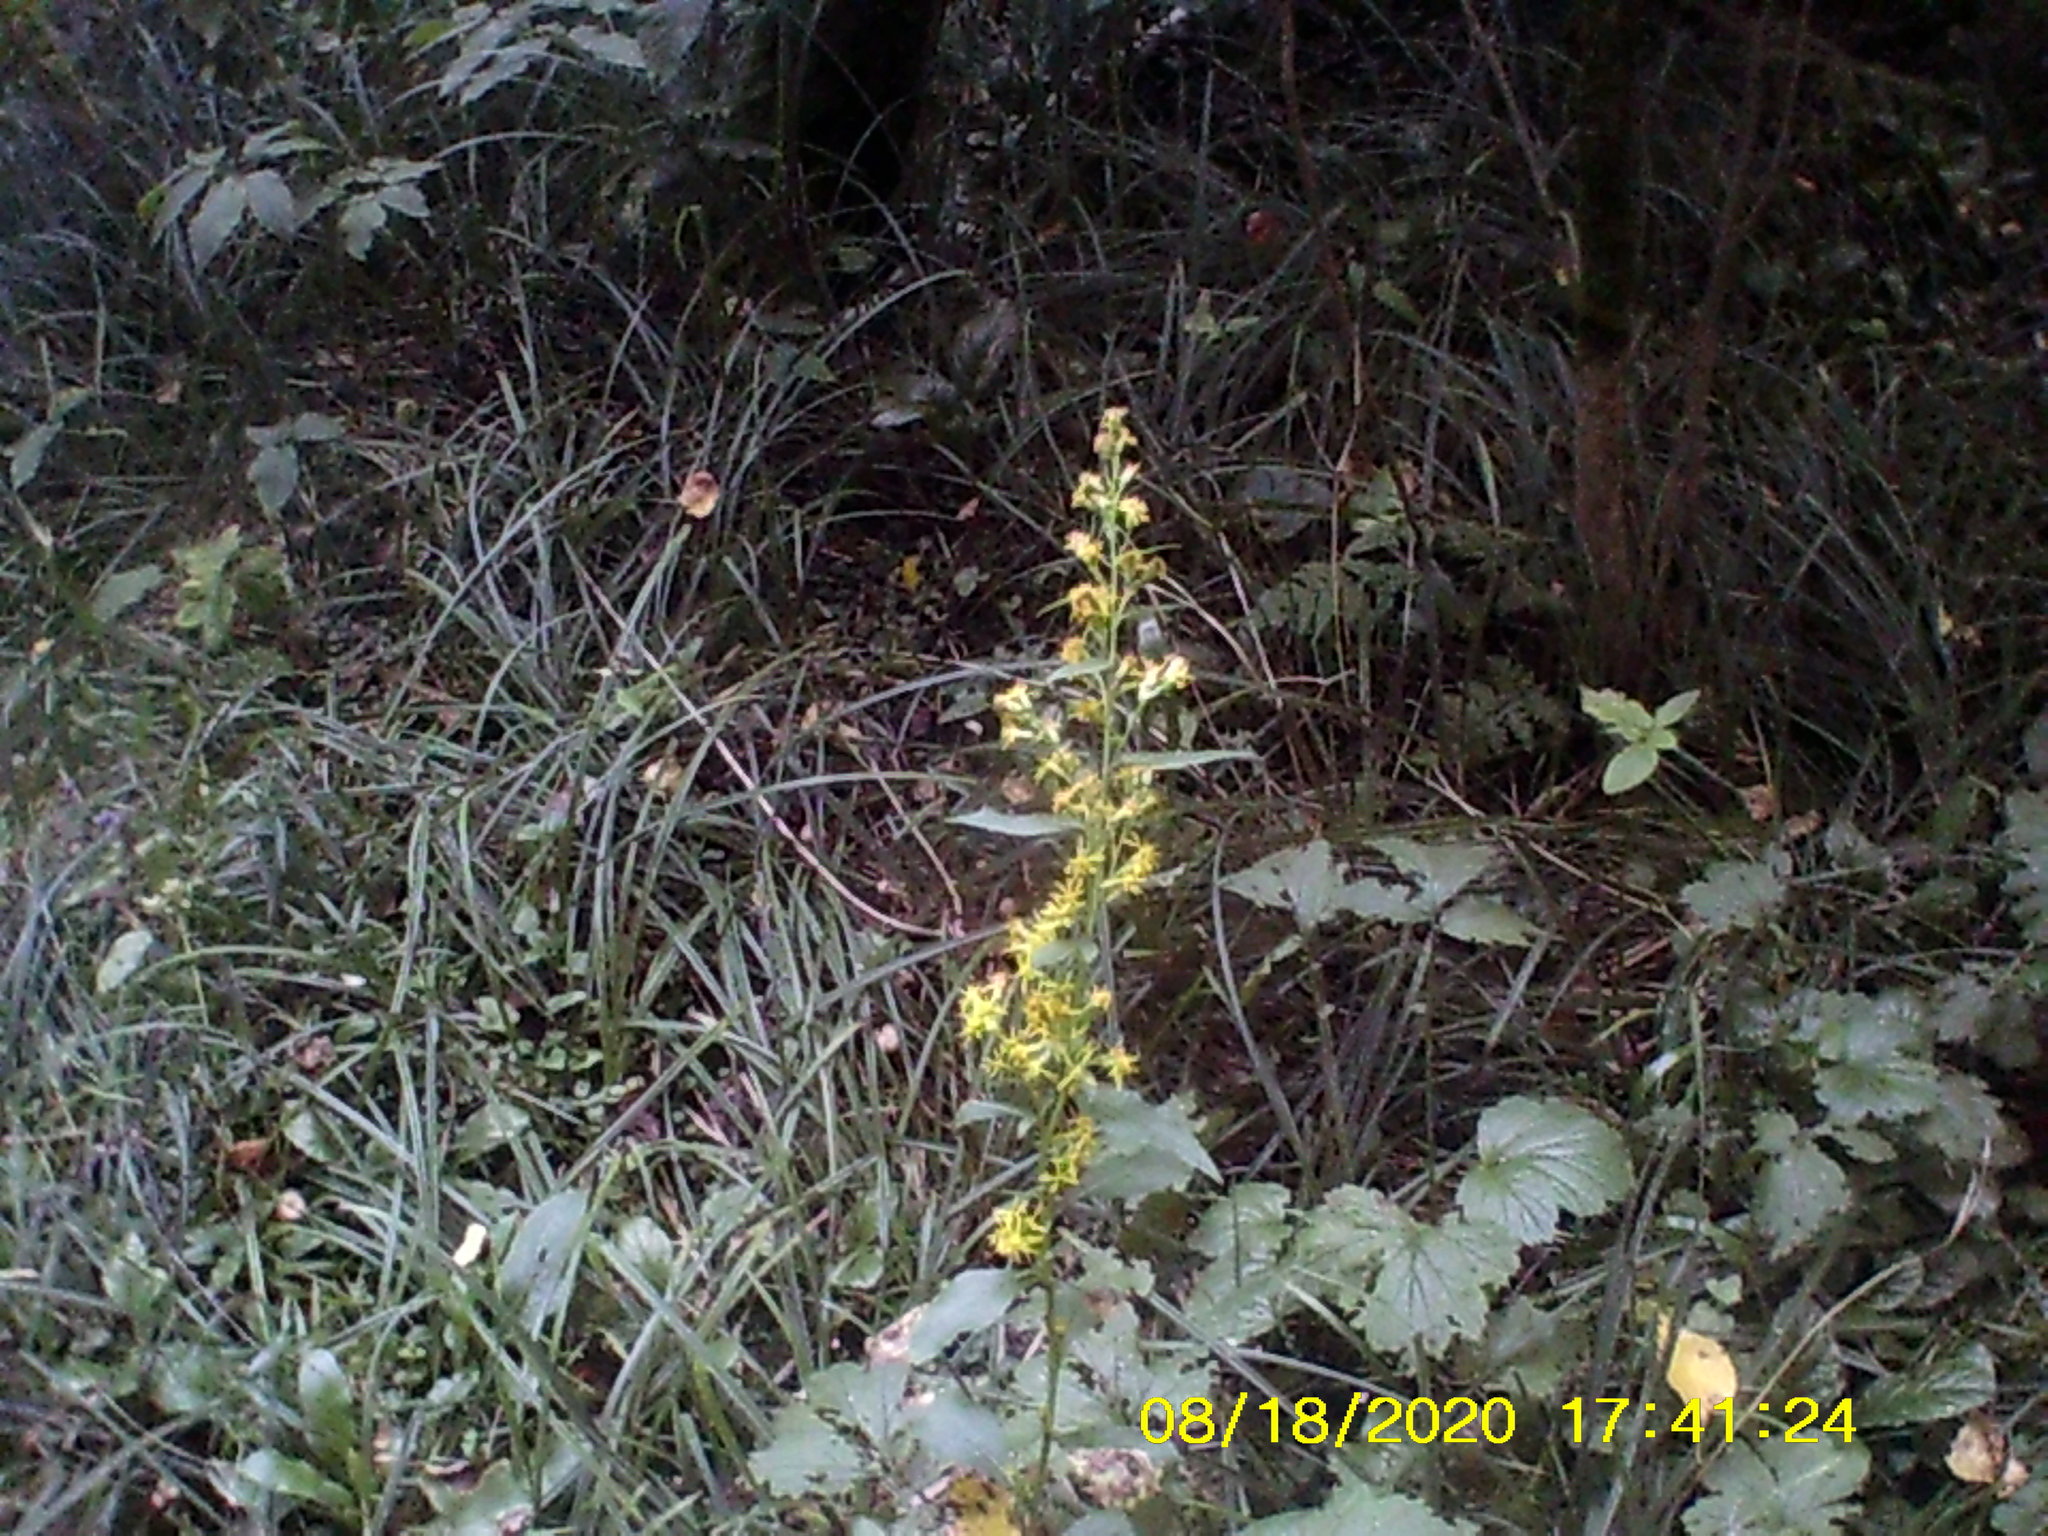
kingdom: Plantae
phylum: Tracheophyta
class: Magnoliopsida
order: Asterales
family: Asteraceae
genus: Solidago
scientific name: Solidago virgaurea
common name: Goldenrod
